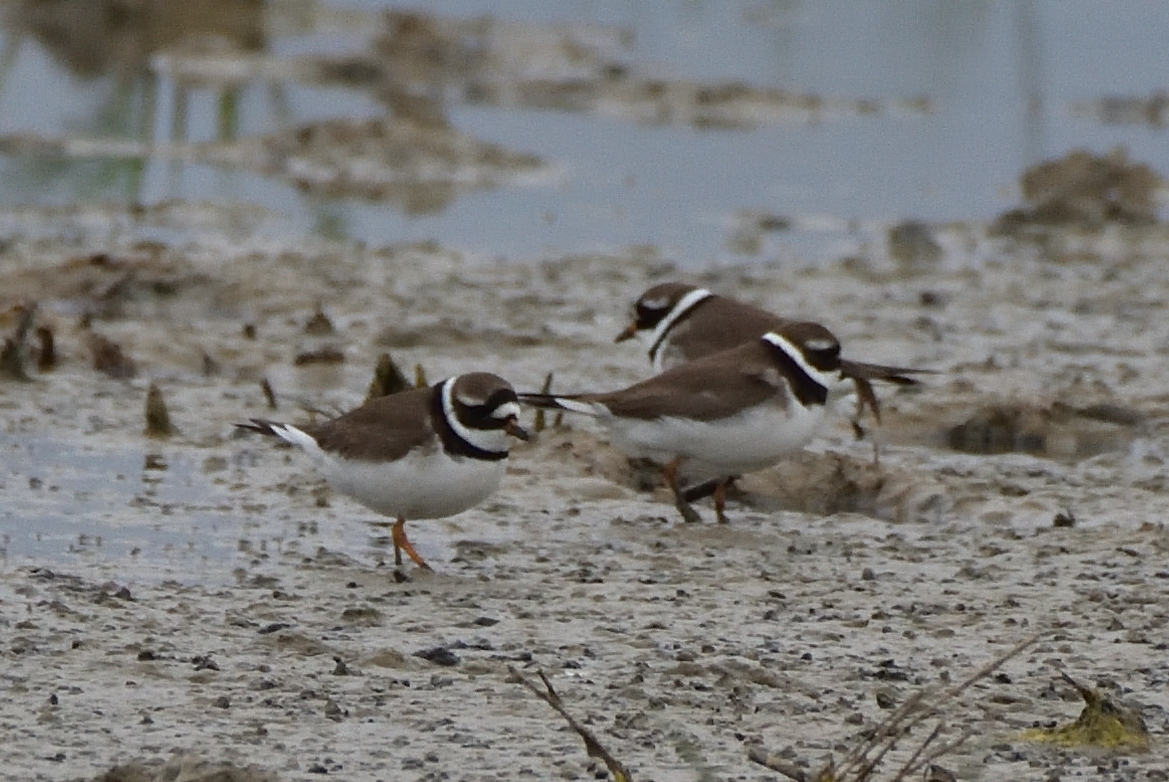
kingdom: Animalia
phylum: Chordata
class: Aves
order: Charadriiformes
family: Charadriidae
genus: Charadrius
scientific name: Charadrius hiaticula
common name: Common ringed plover
